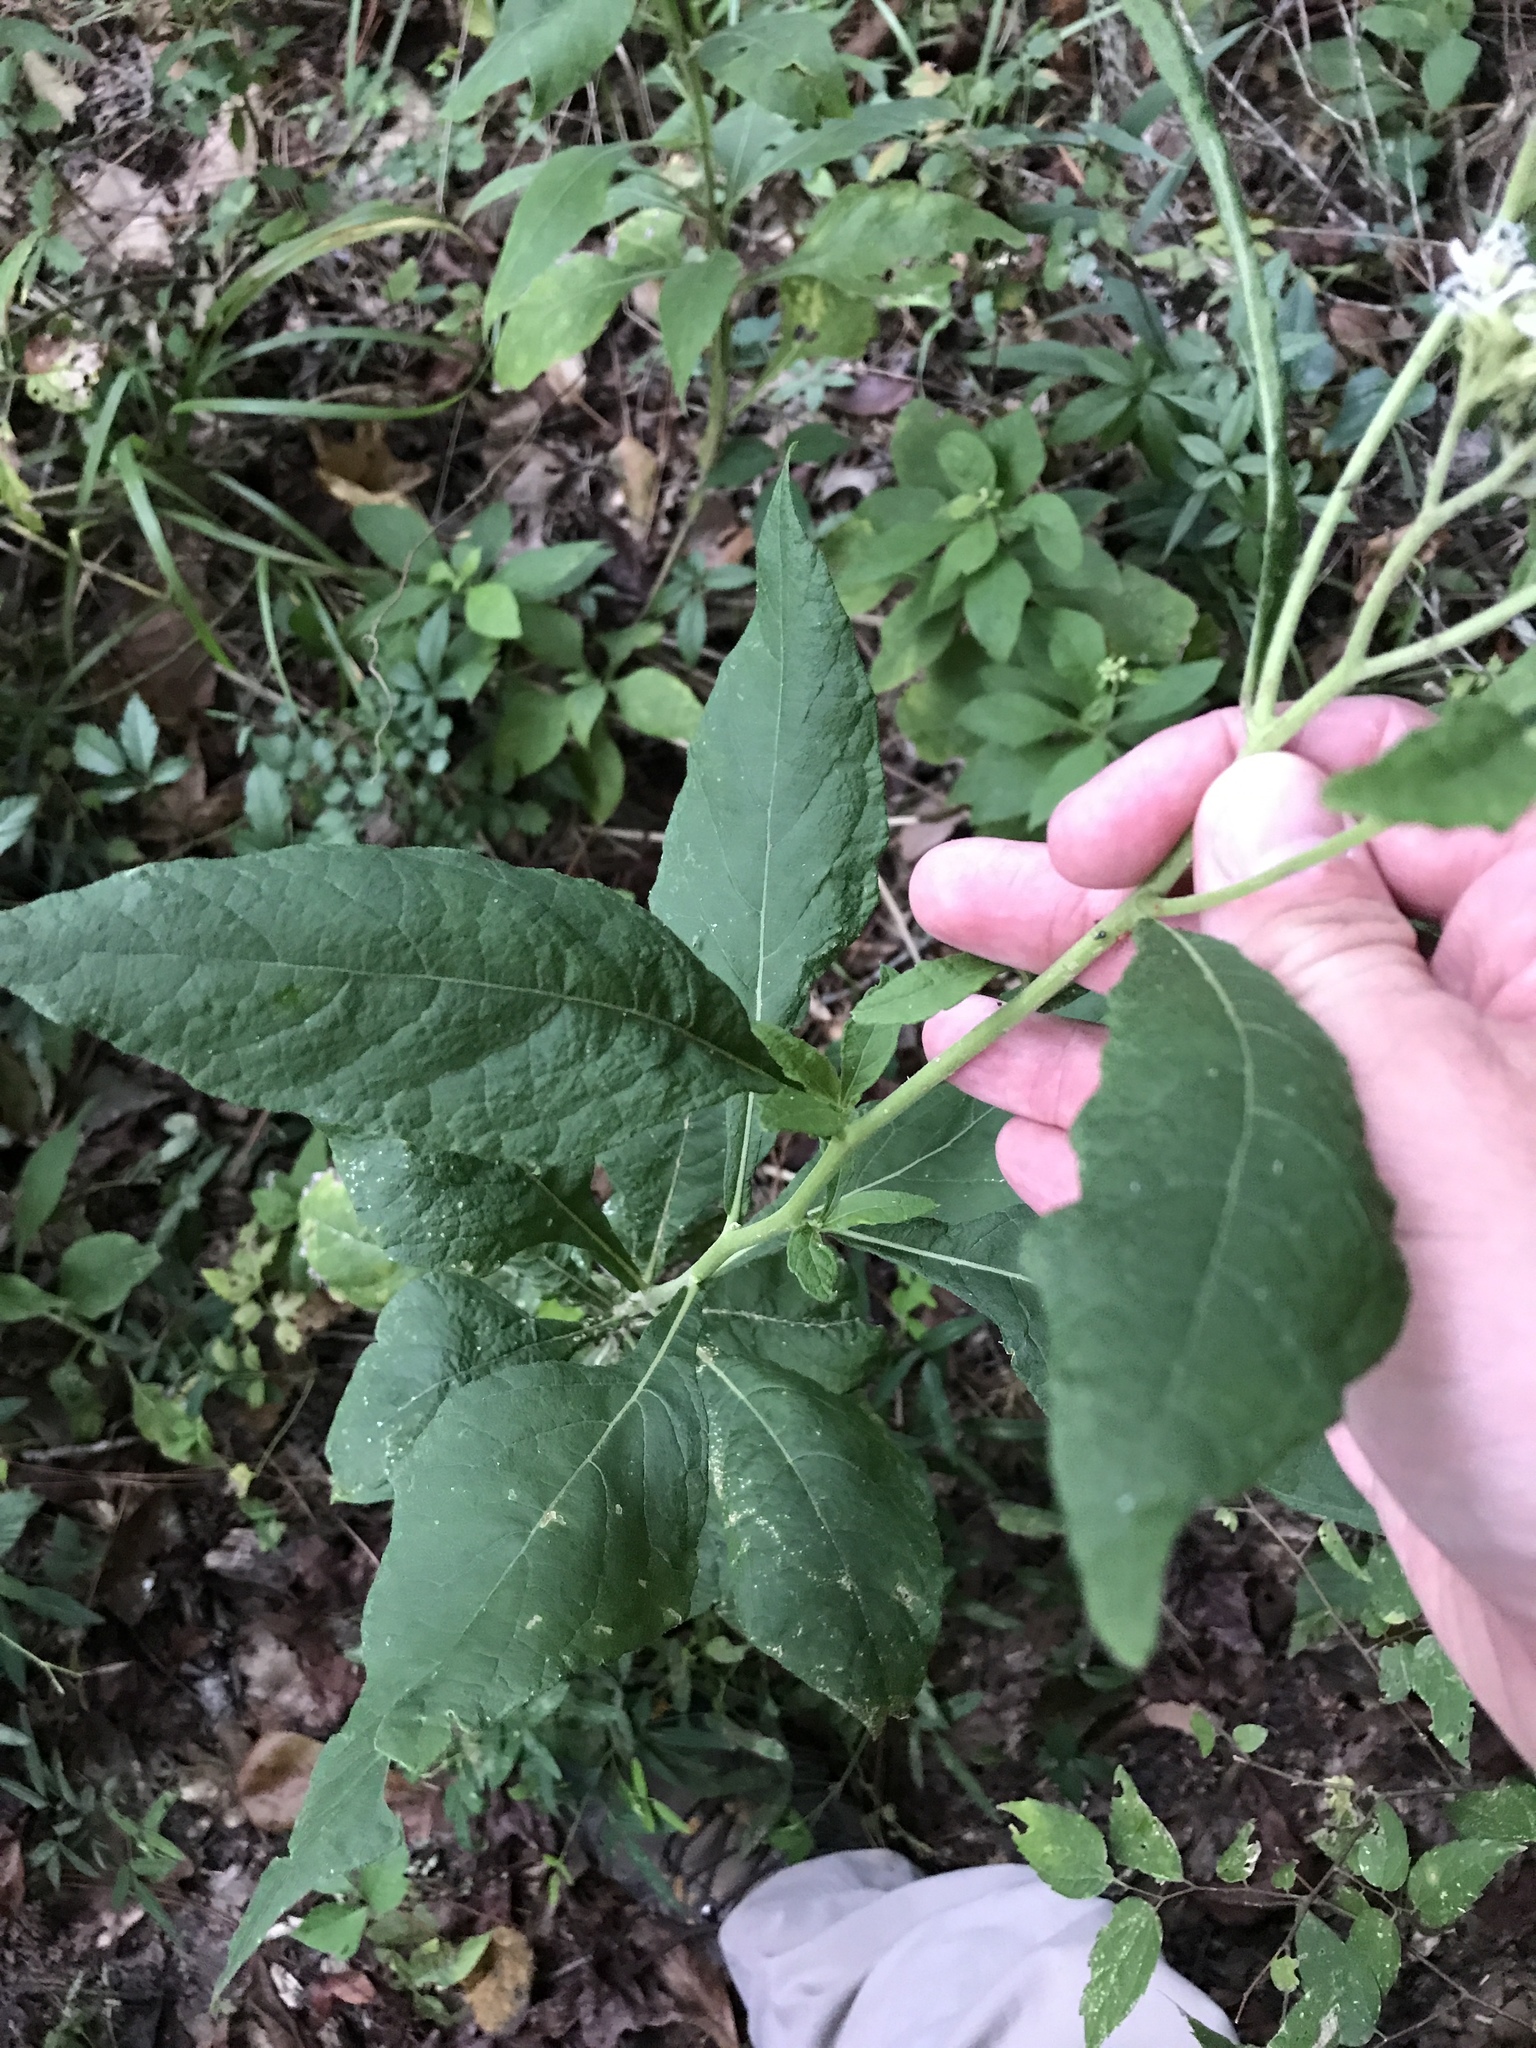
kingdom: Plantae
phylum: Tracheophyta
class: Magnoliopsida
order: Asterales
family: Asteraceae
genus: Verbesina
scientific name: Verbesina virginica
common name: Frostweed
